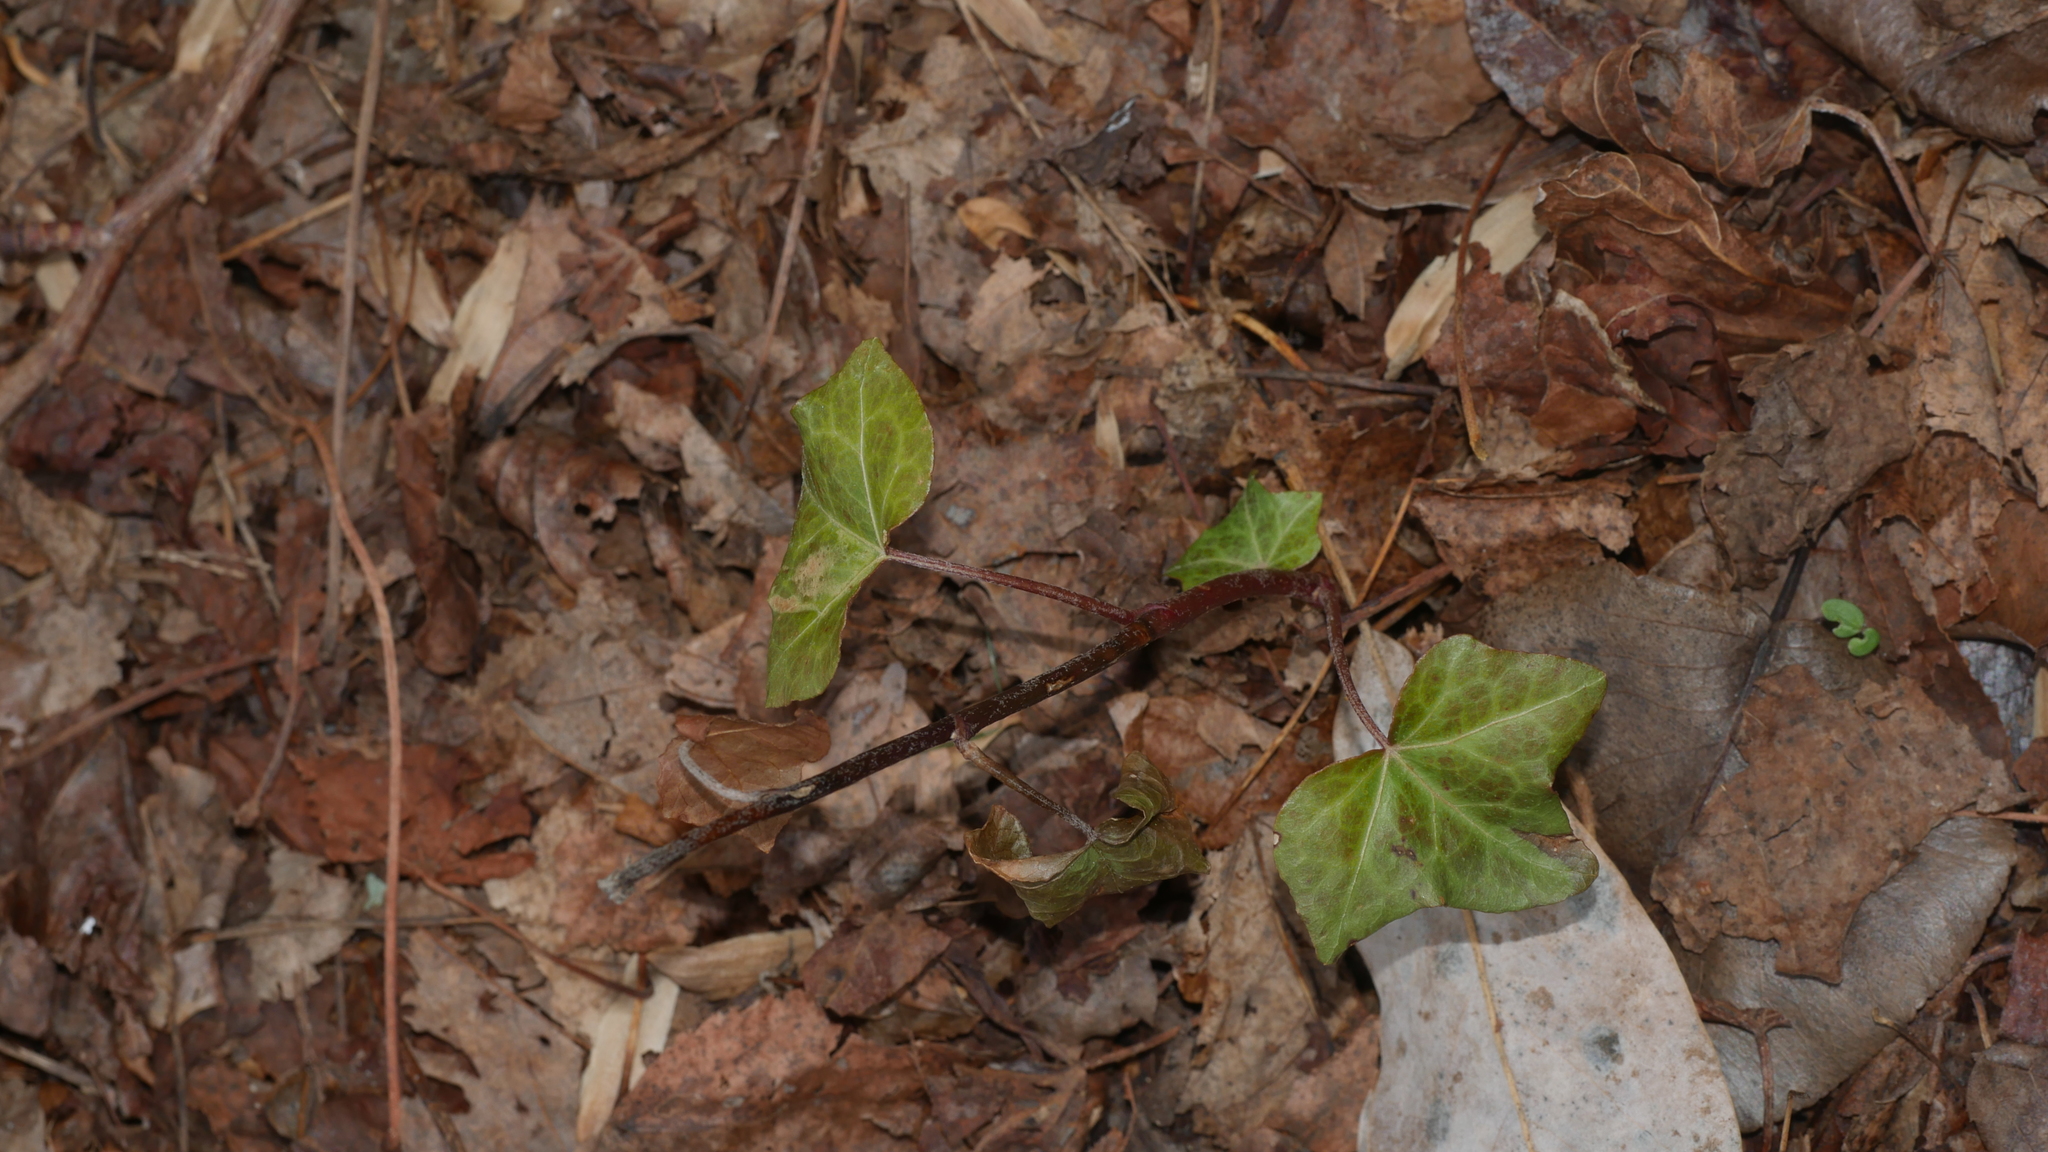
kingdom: Plantae
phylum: Tracheophyta
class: Magnoliopsida
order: Apiales
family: Araliaceae
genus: Hedera
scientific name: Hedera helix
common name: Ivy
